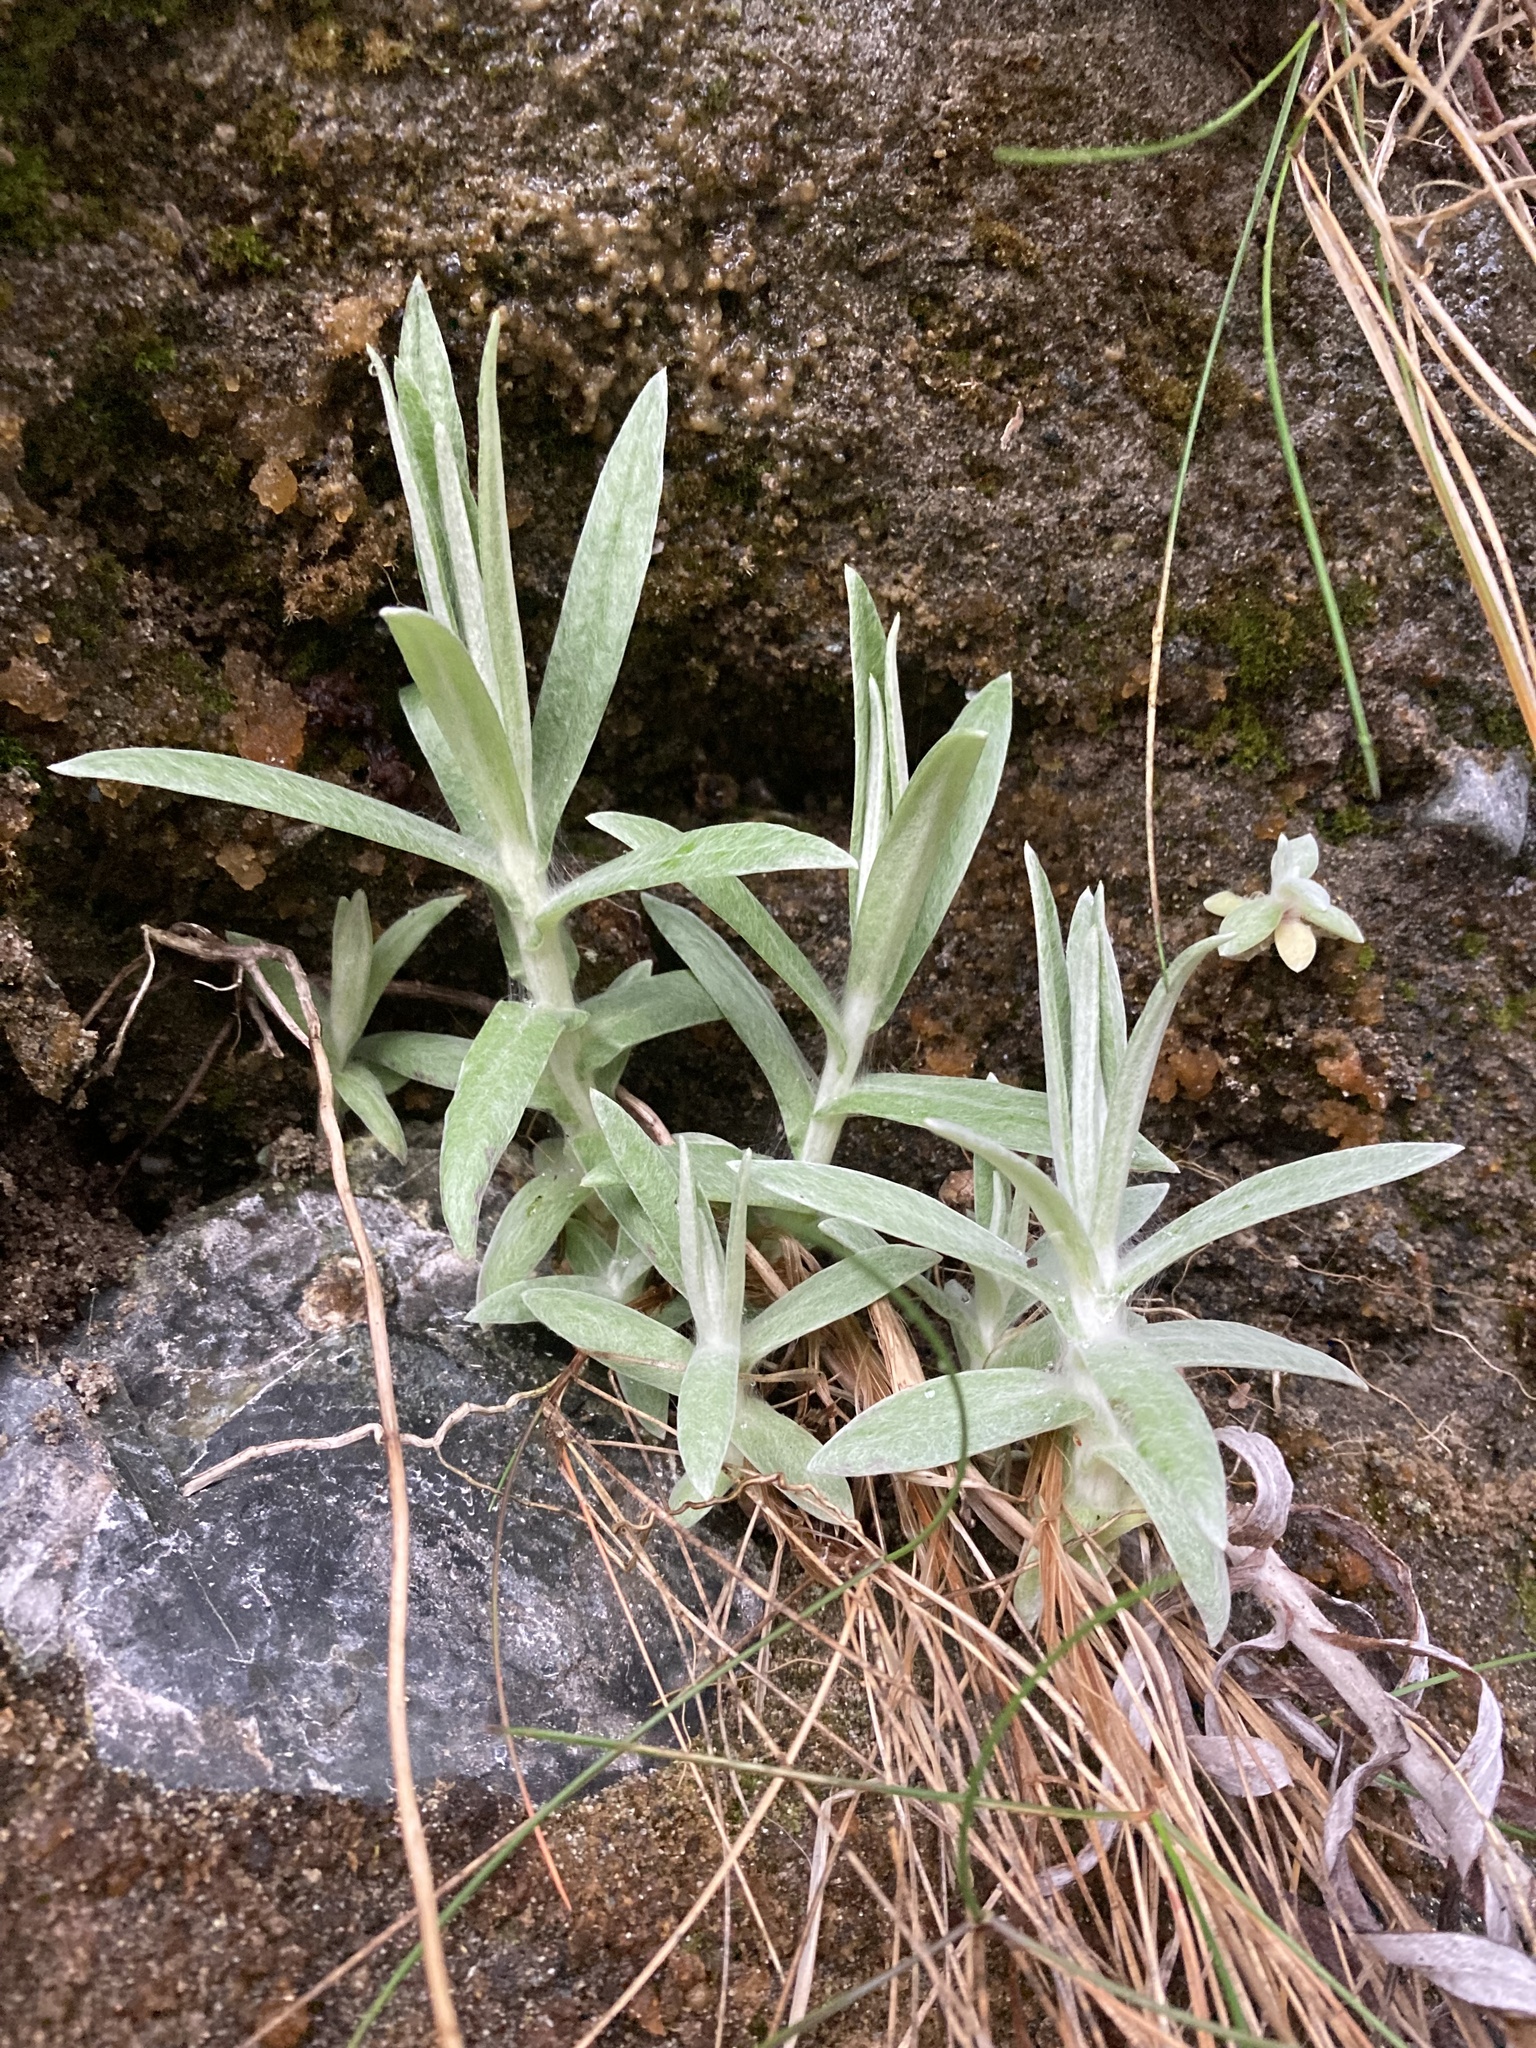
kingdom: Plantae
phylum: Tracheophyta
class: Magnoliopsida
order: Asterales
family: Asteraceae
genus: Anaphalis
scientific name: Anaphalis margaritacea
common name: Pearly everlasting
